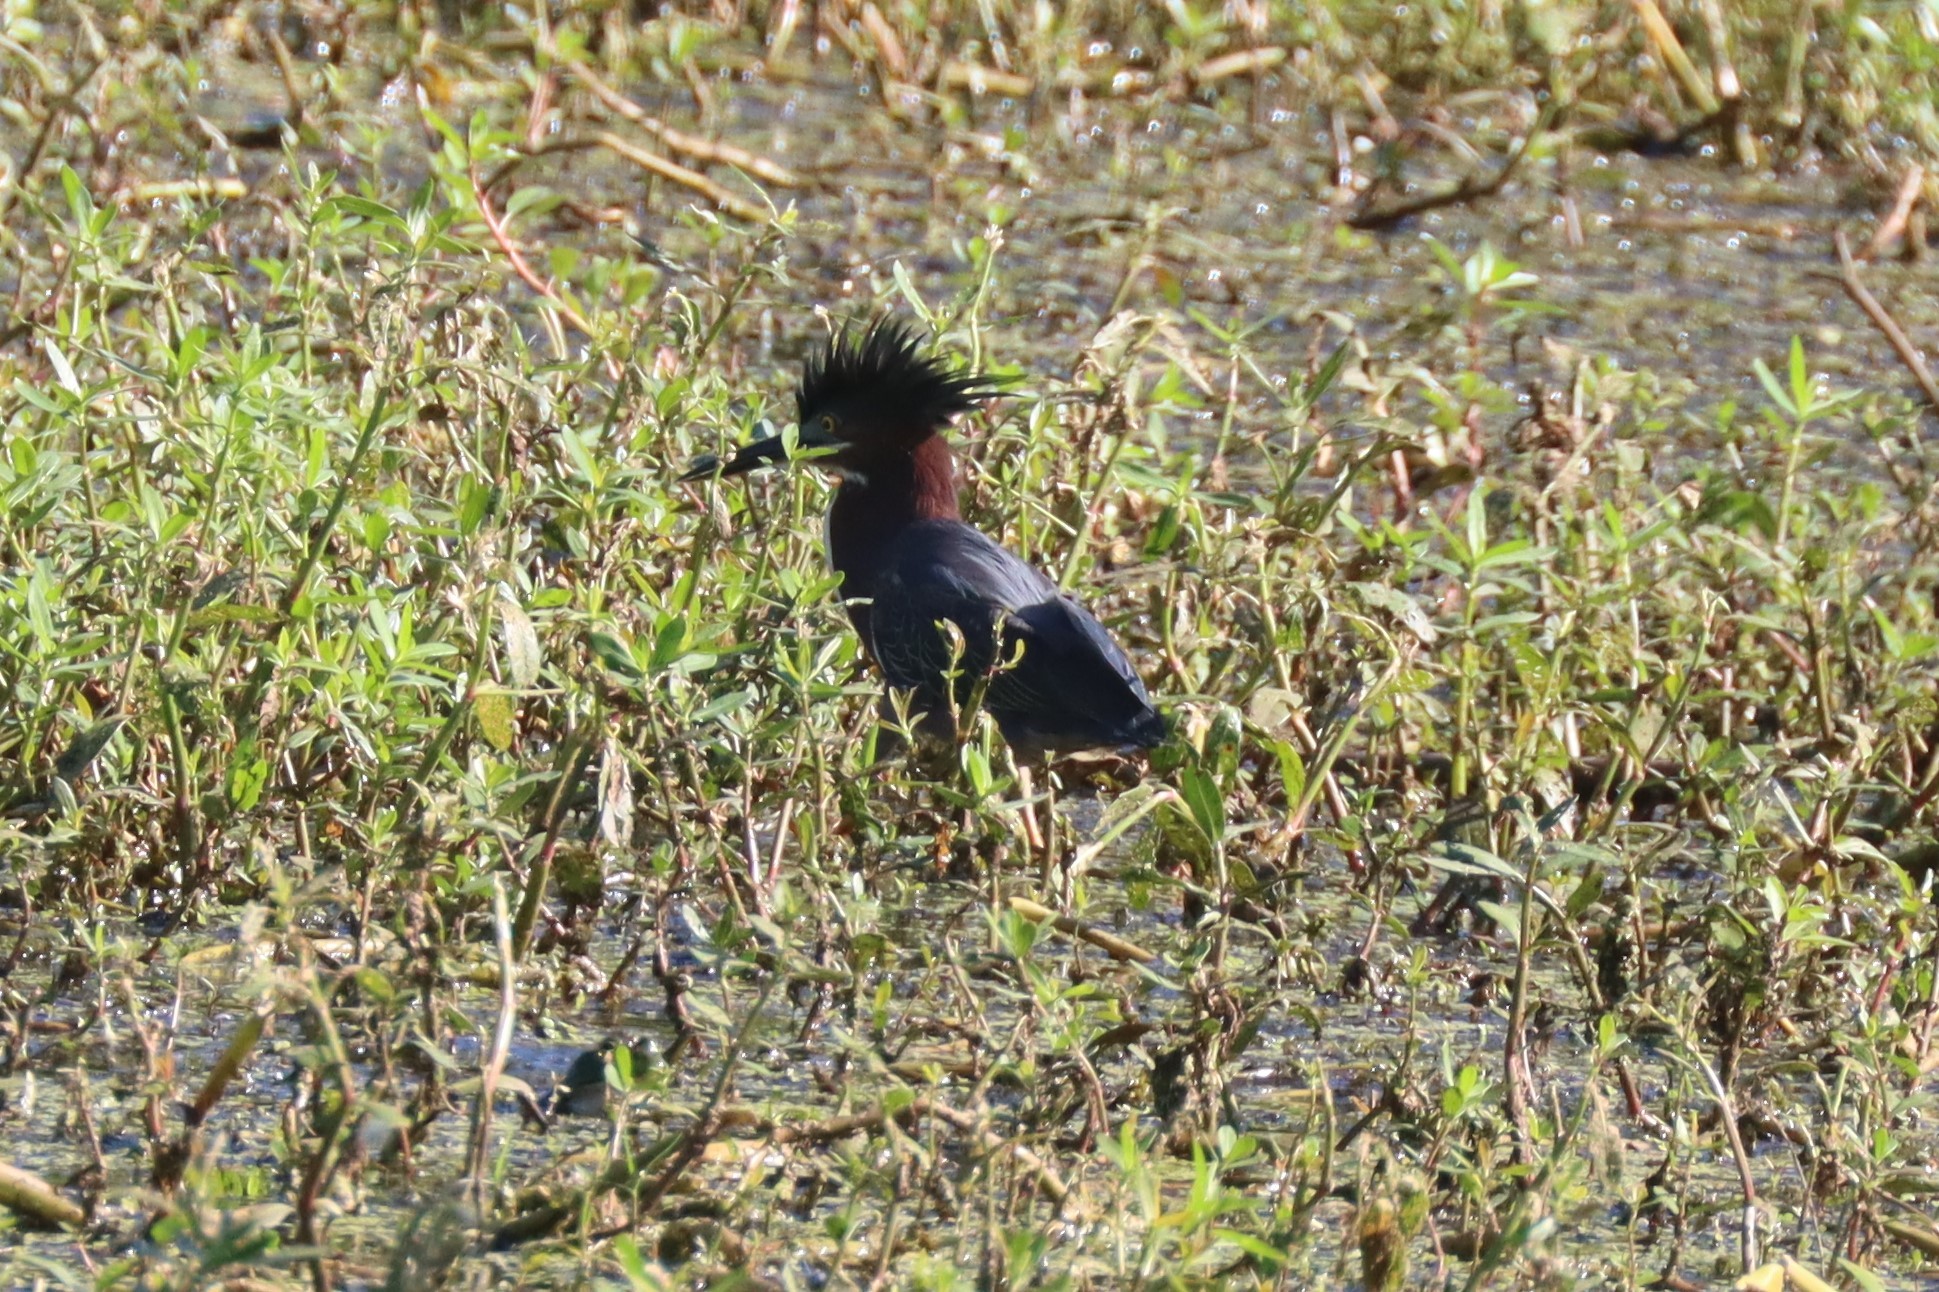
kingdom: Animalia
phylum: Chordata
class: Aves
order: Pelecaniformes
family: Ardeidae
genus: Butorides
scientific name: Butorides virescens
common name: Green heron
